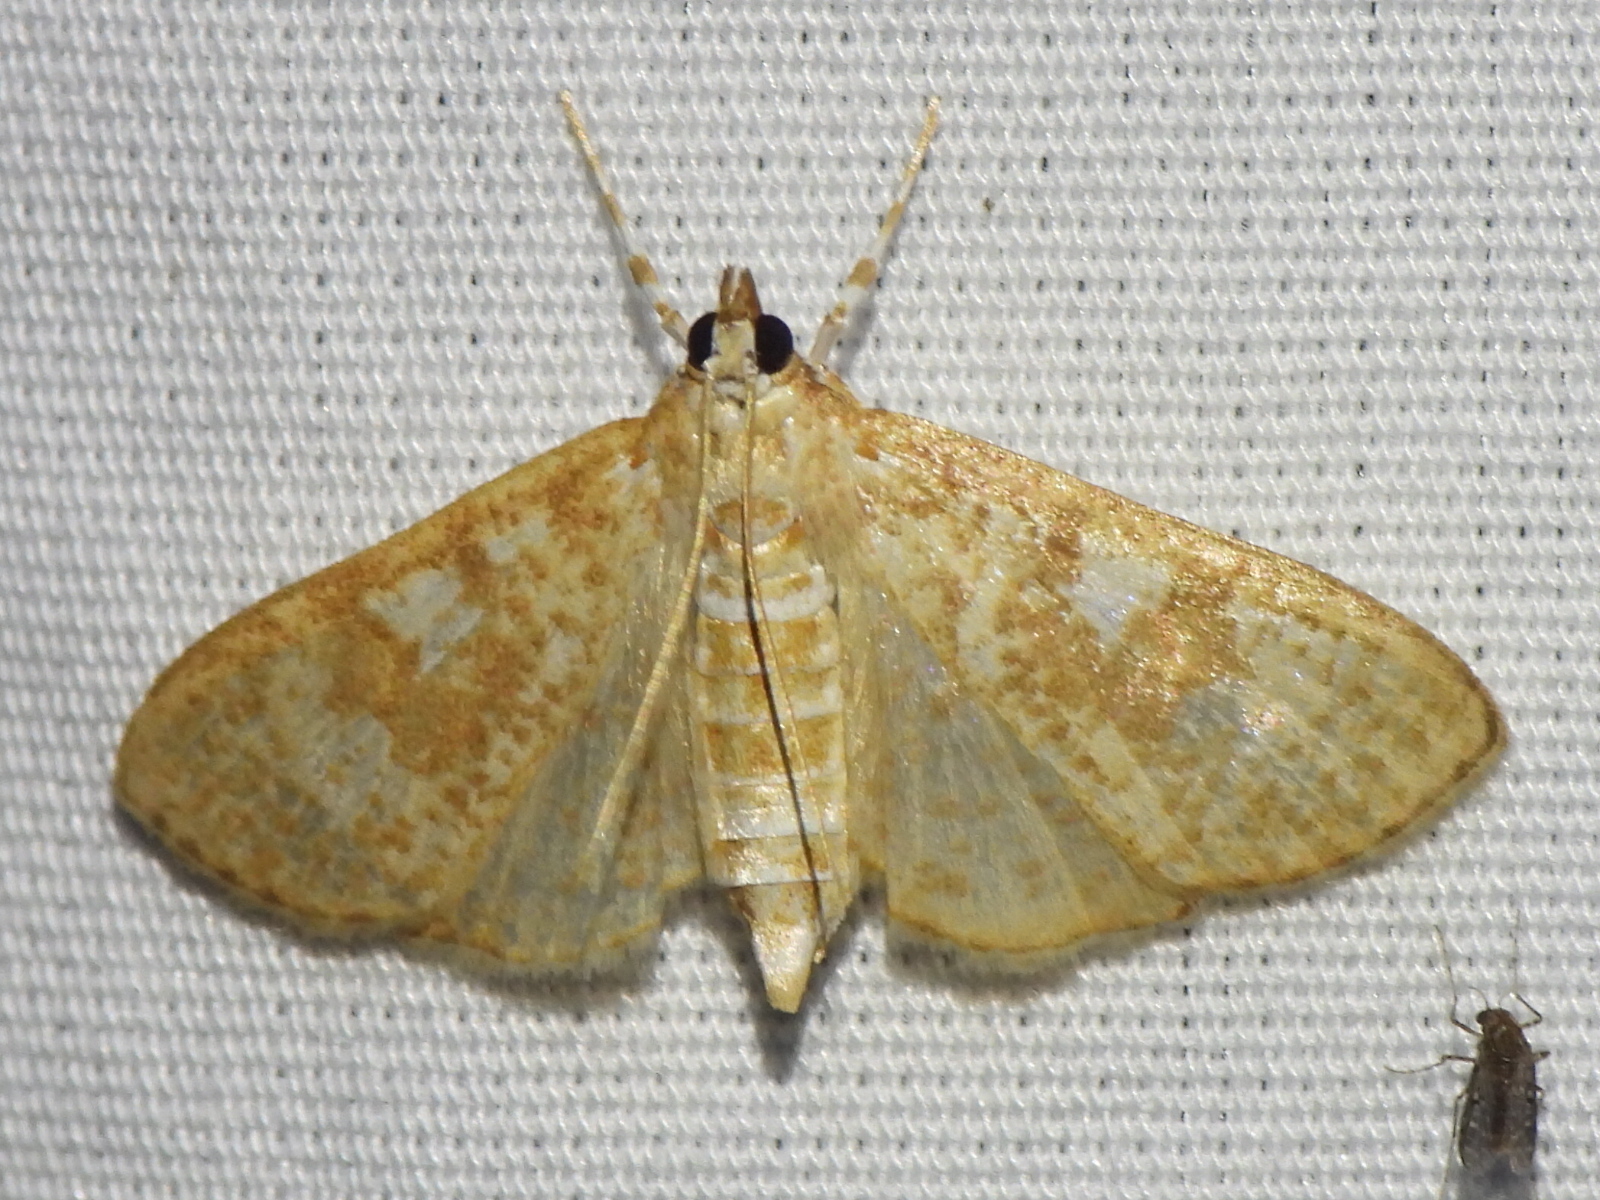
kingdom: Animalia
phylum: Arthropoda
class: Insecta
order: Lepidoptera
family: Crambidae
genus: Palpita
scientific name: Palpita freemanalis
